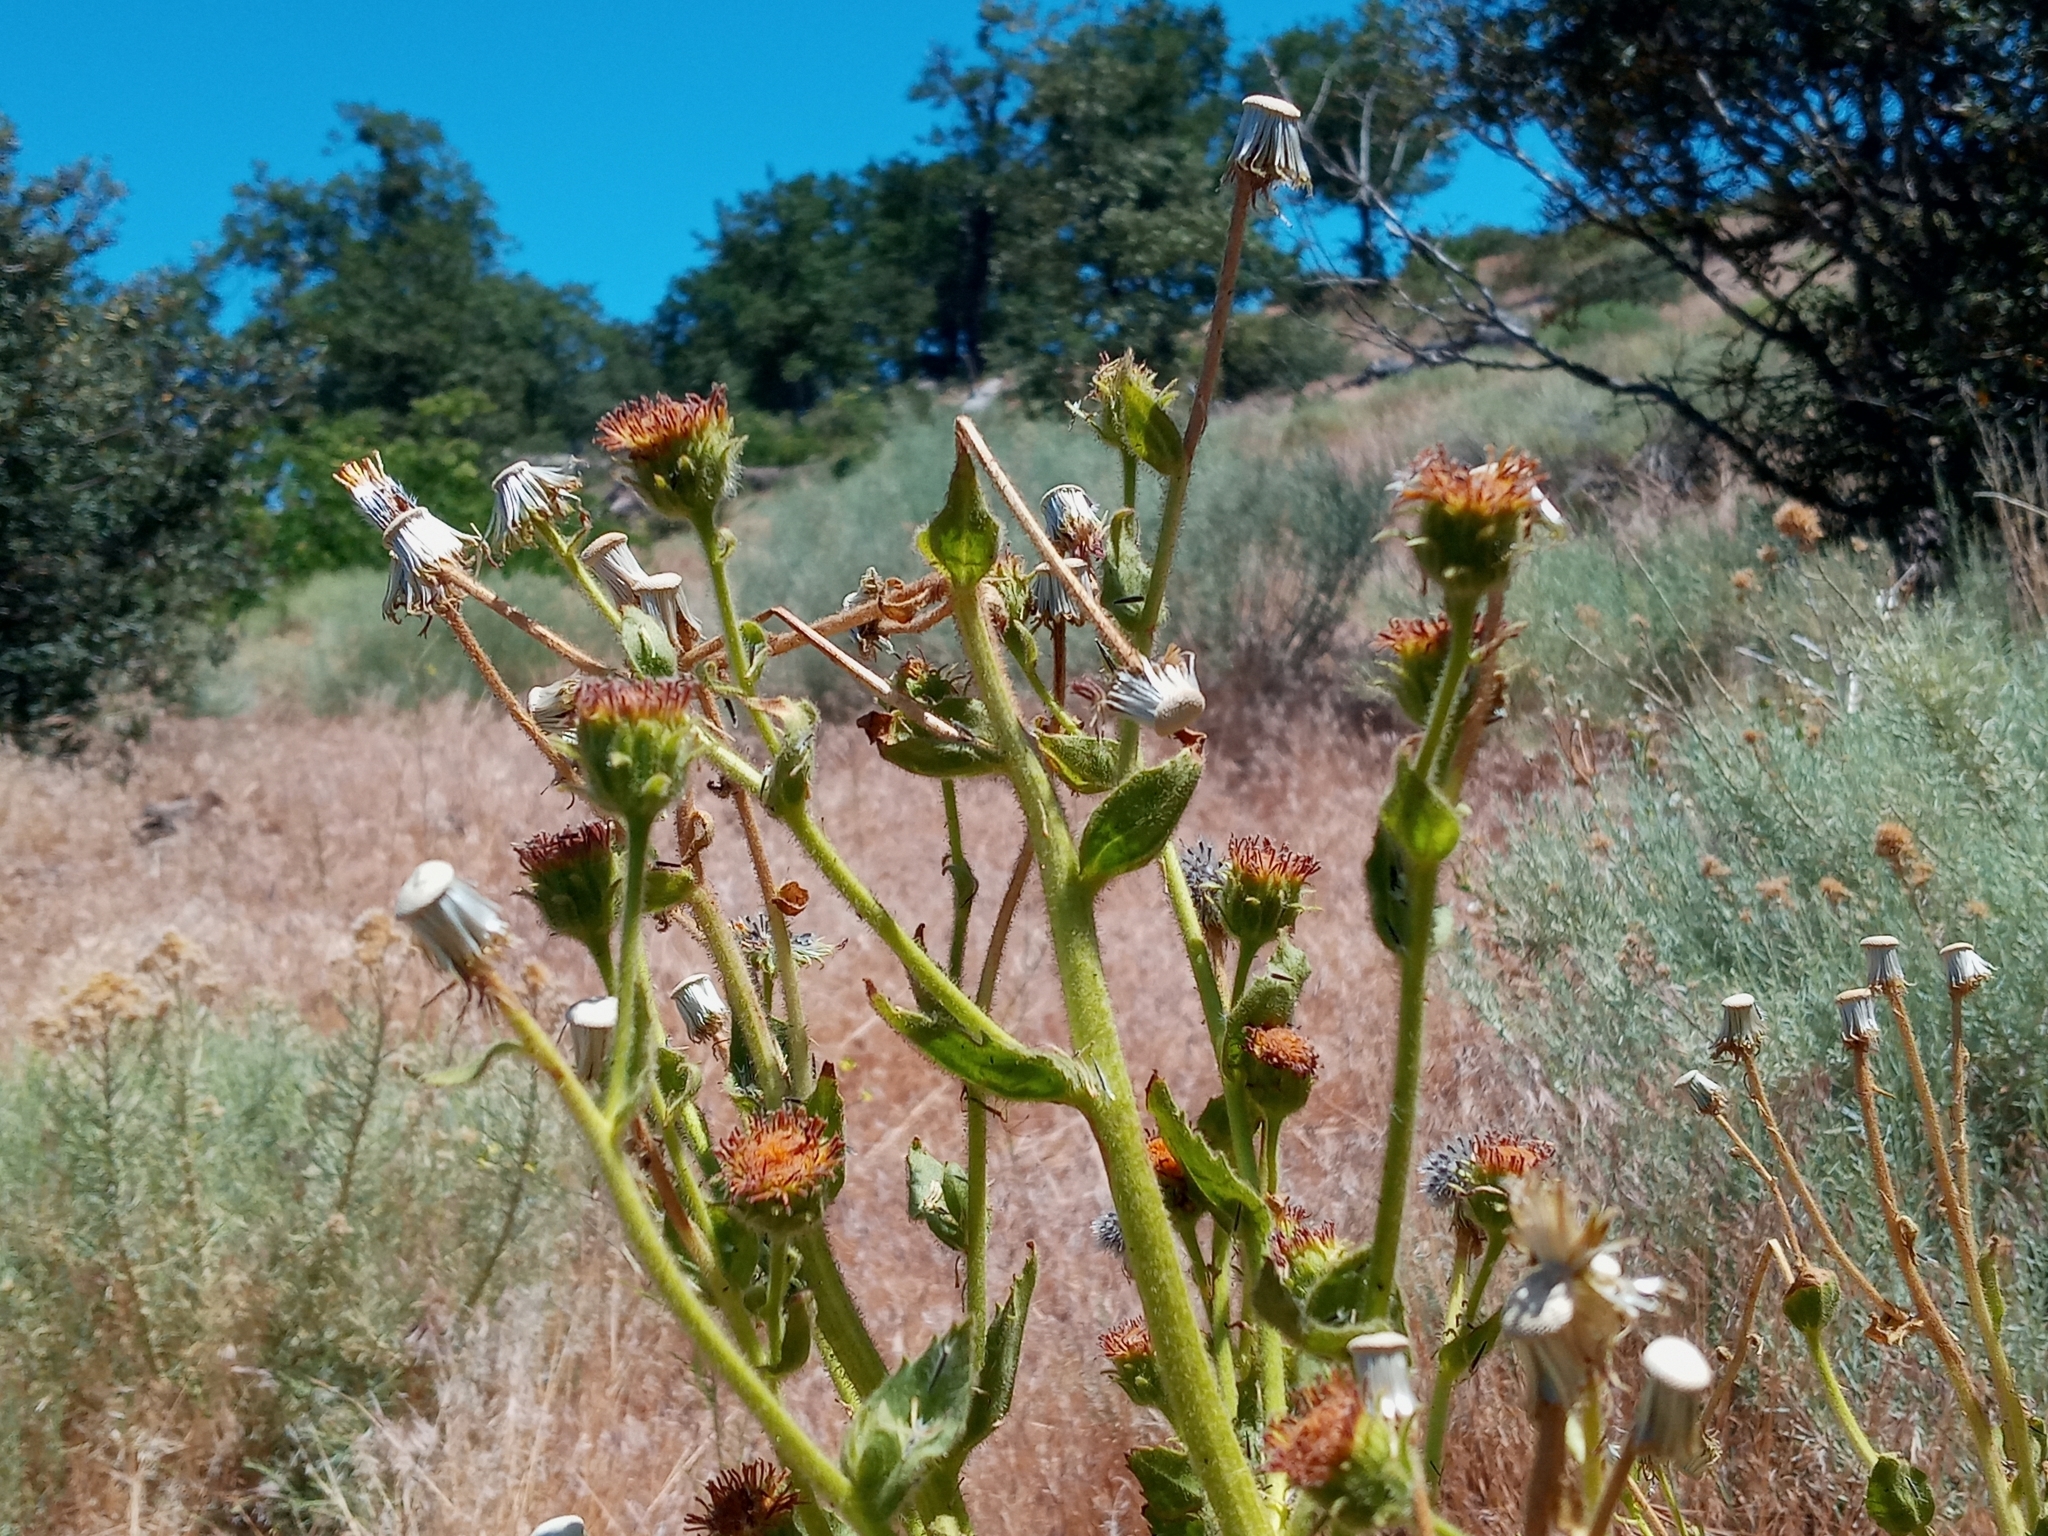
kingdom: Plantae
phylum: Tracheophyta
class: Magnoliopsida
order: Asterales
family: Asteraceae
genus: Hulsea
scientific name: Hulsea heterochroma
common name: Redray alpinegold
